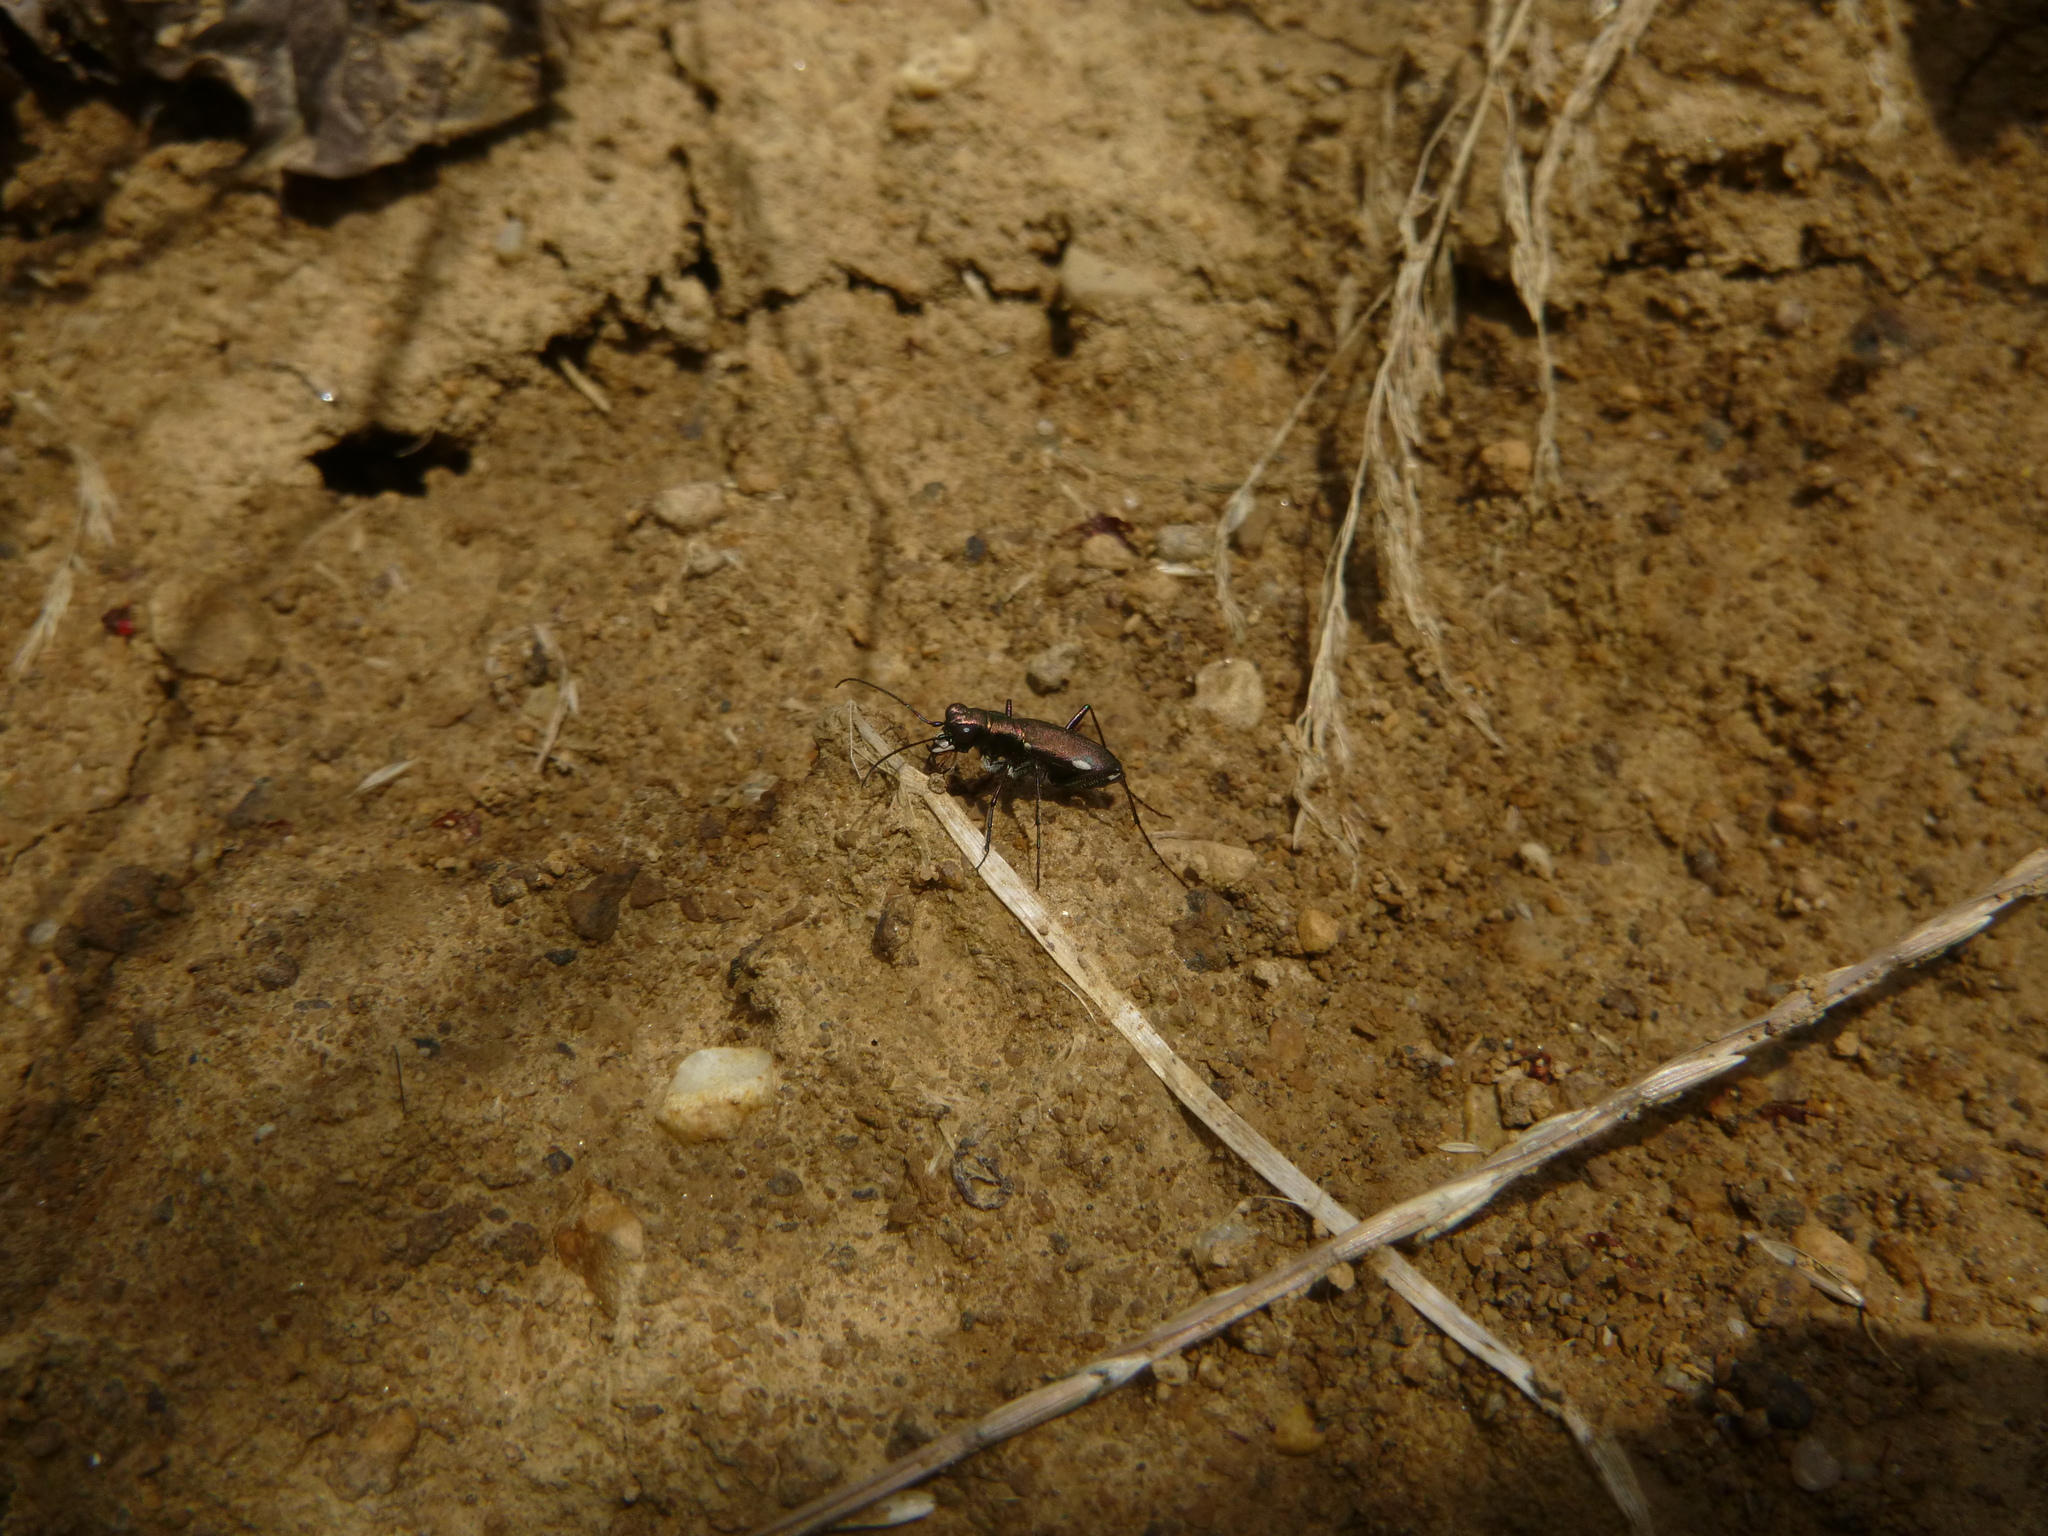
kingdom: Animalia
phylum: Arthropoda
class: Insecta
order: Coleoptera
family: Carabidae
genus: Cylindera
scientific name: Cylindera germanica
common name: Cliff tiger beetle
